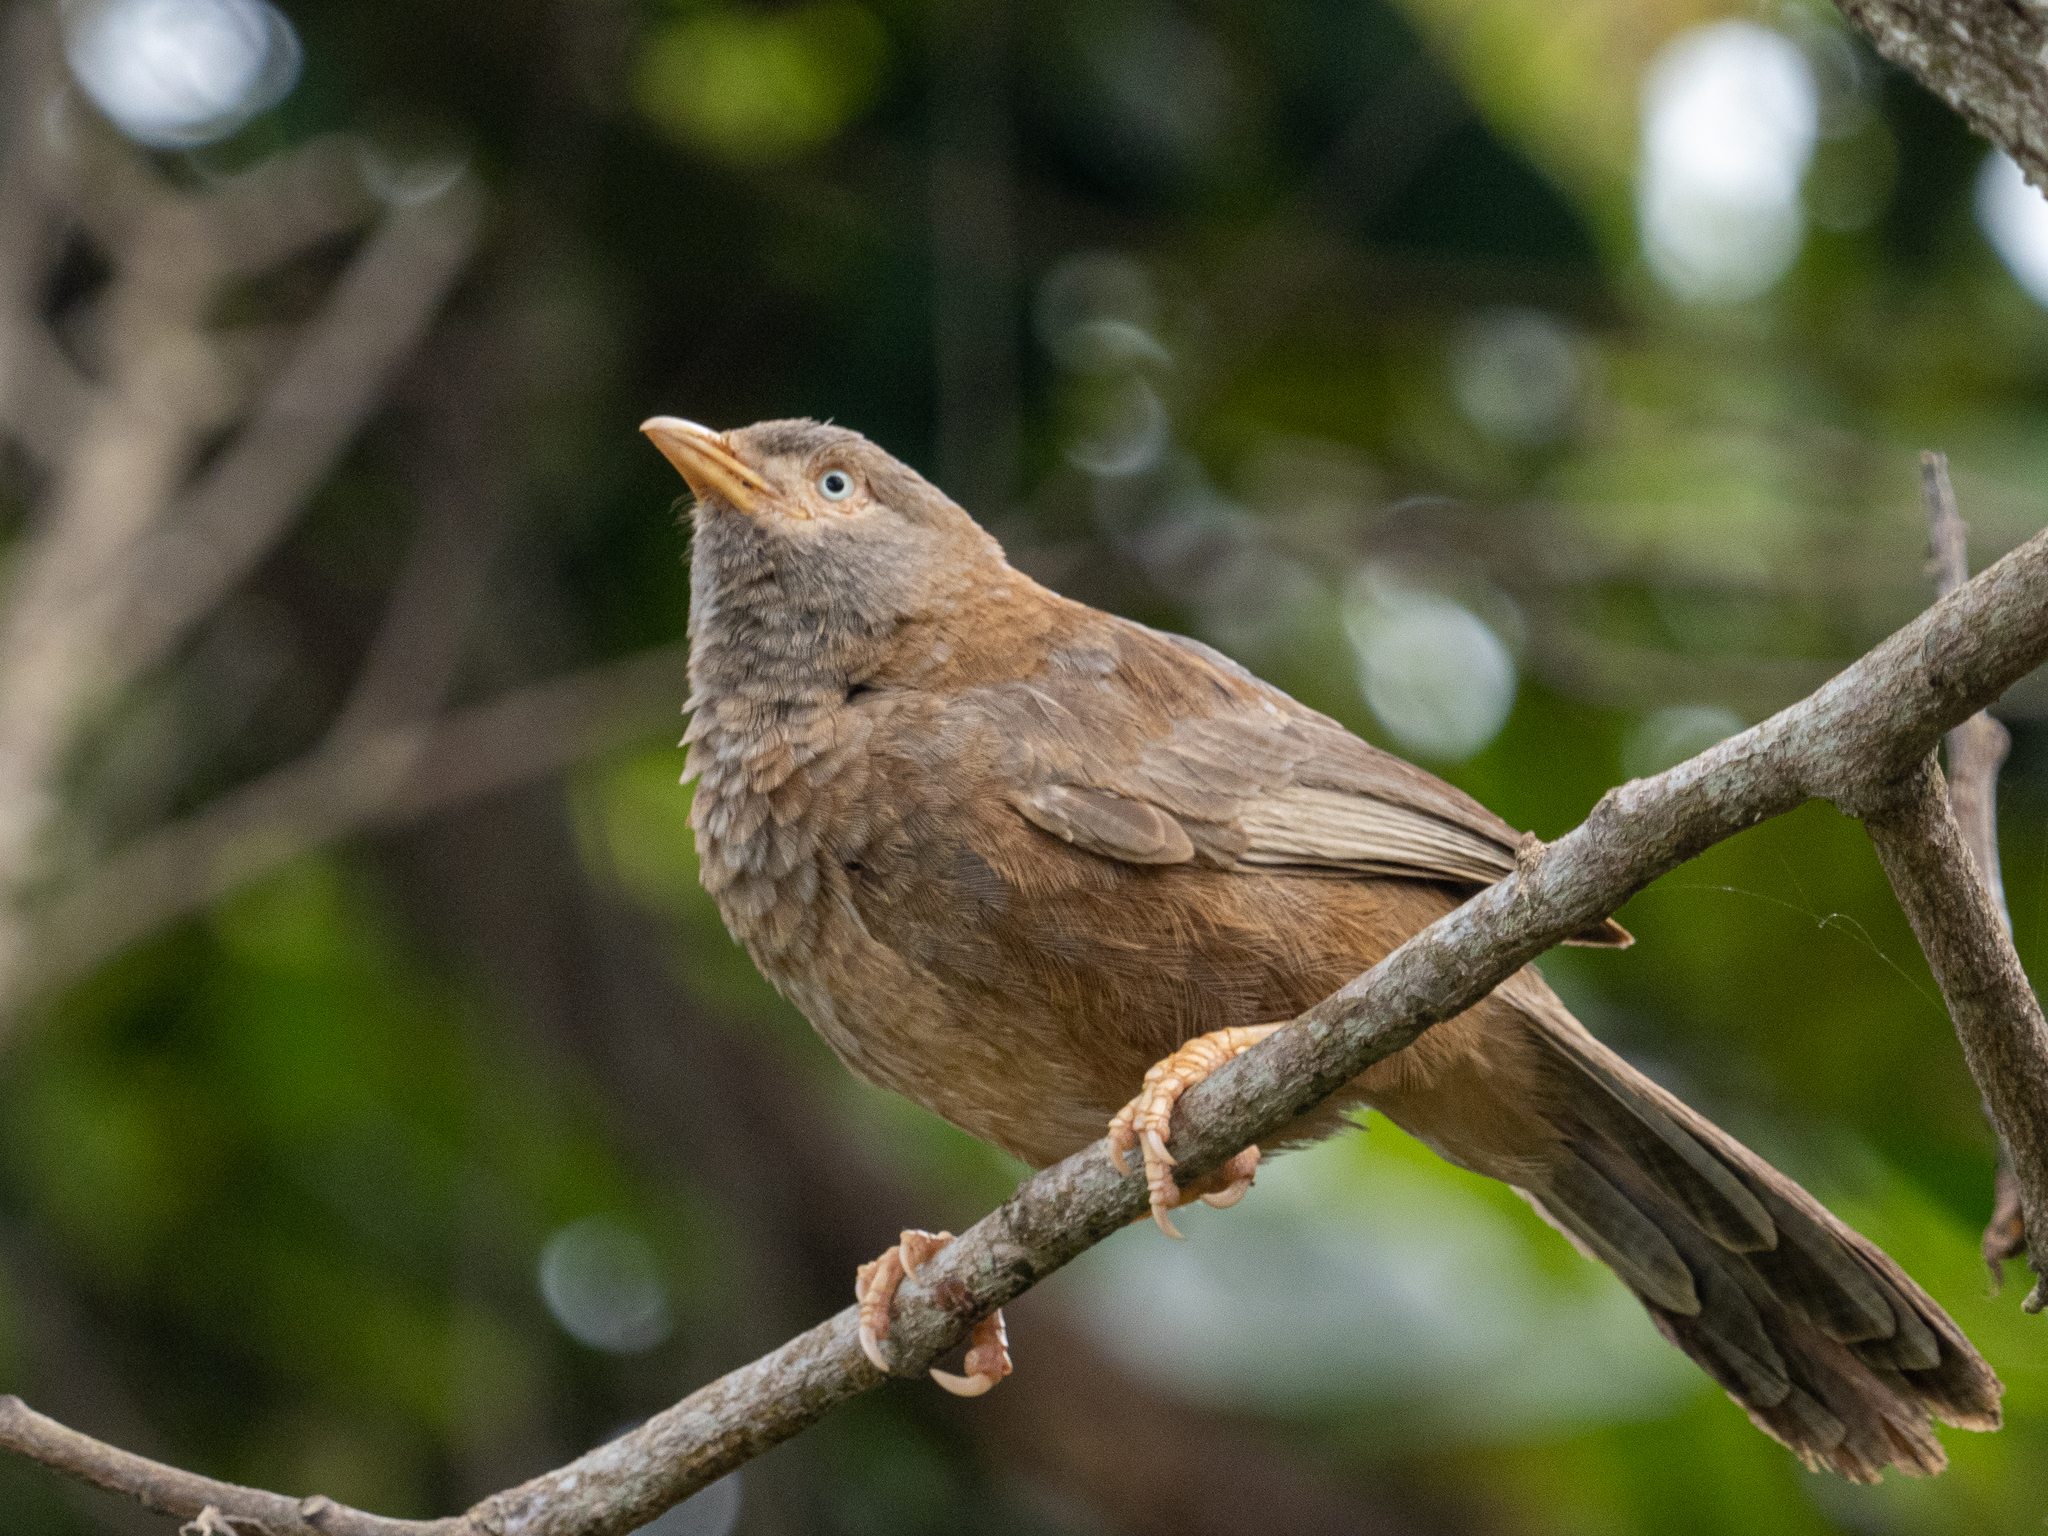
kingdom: Animalia
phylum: Chordata
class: Aves
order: Passeriformes
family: Leiothrichidae
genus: Turdoides
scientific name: Turdoides affinis
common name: Yellow-billed babbler
